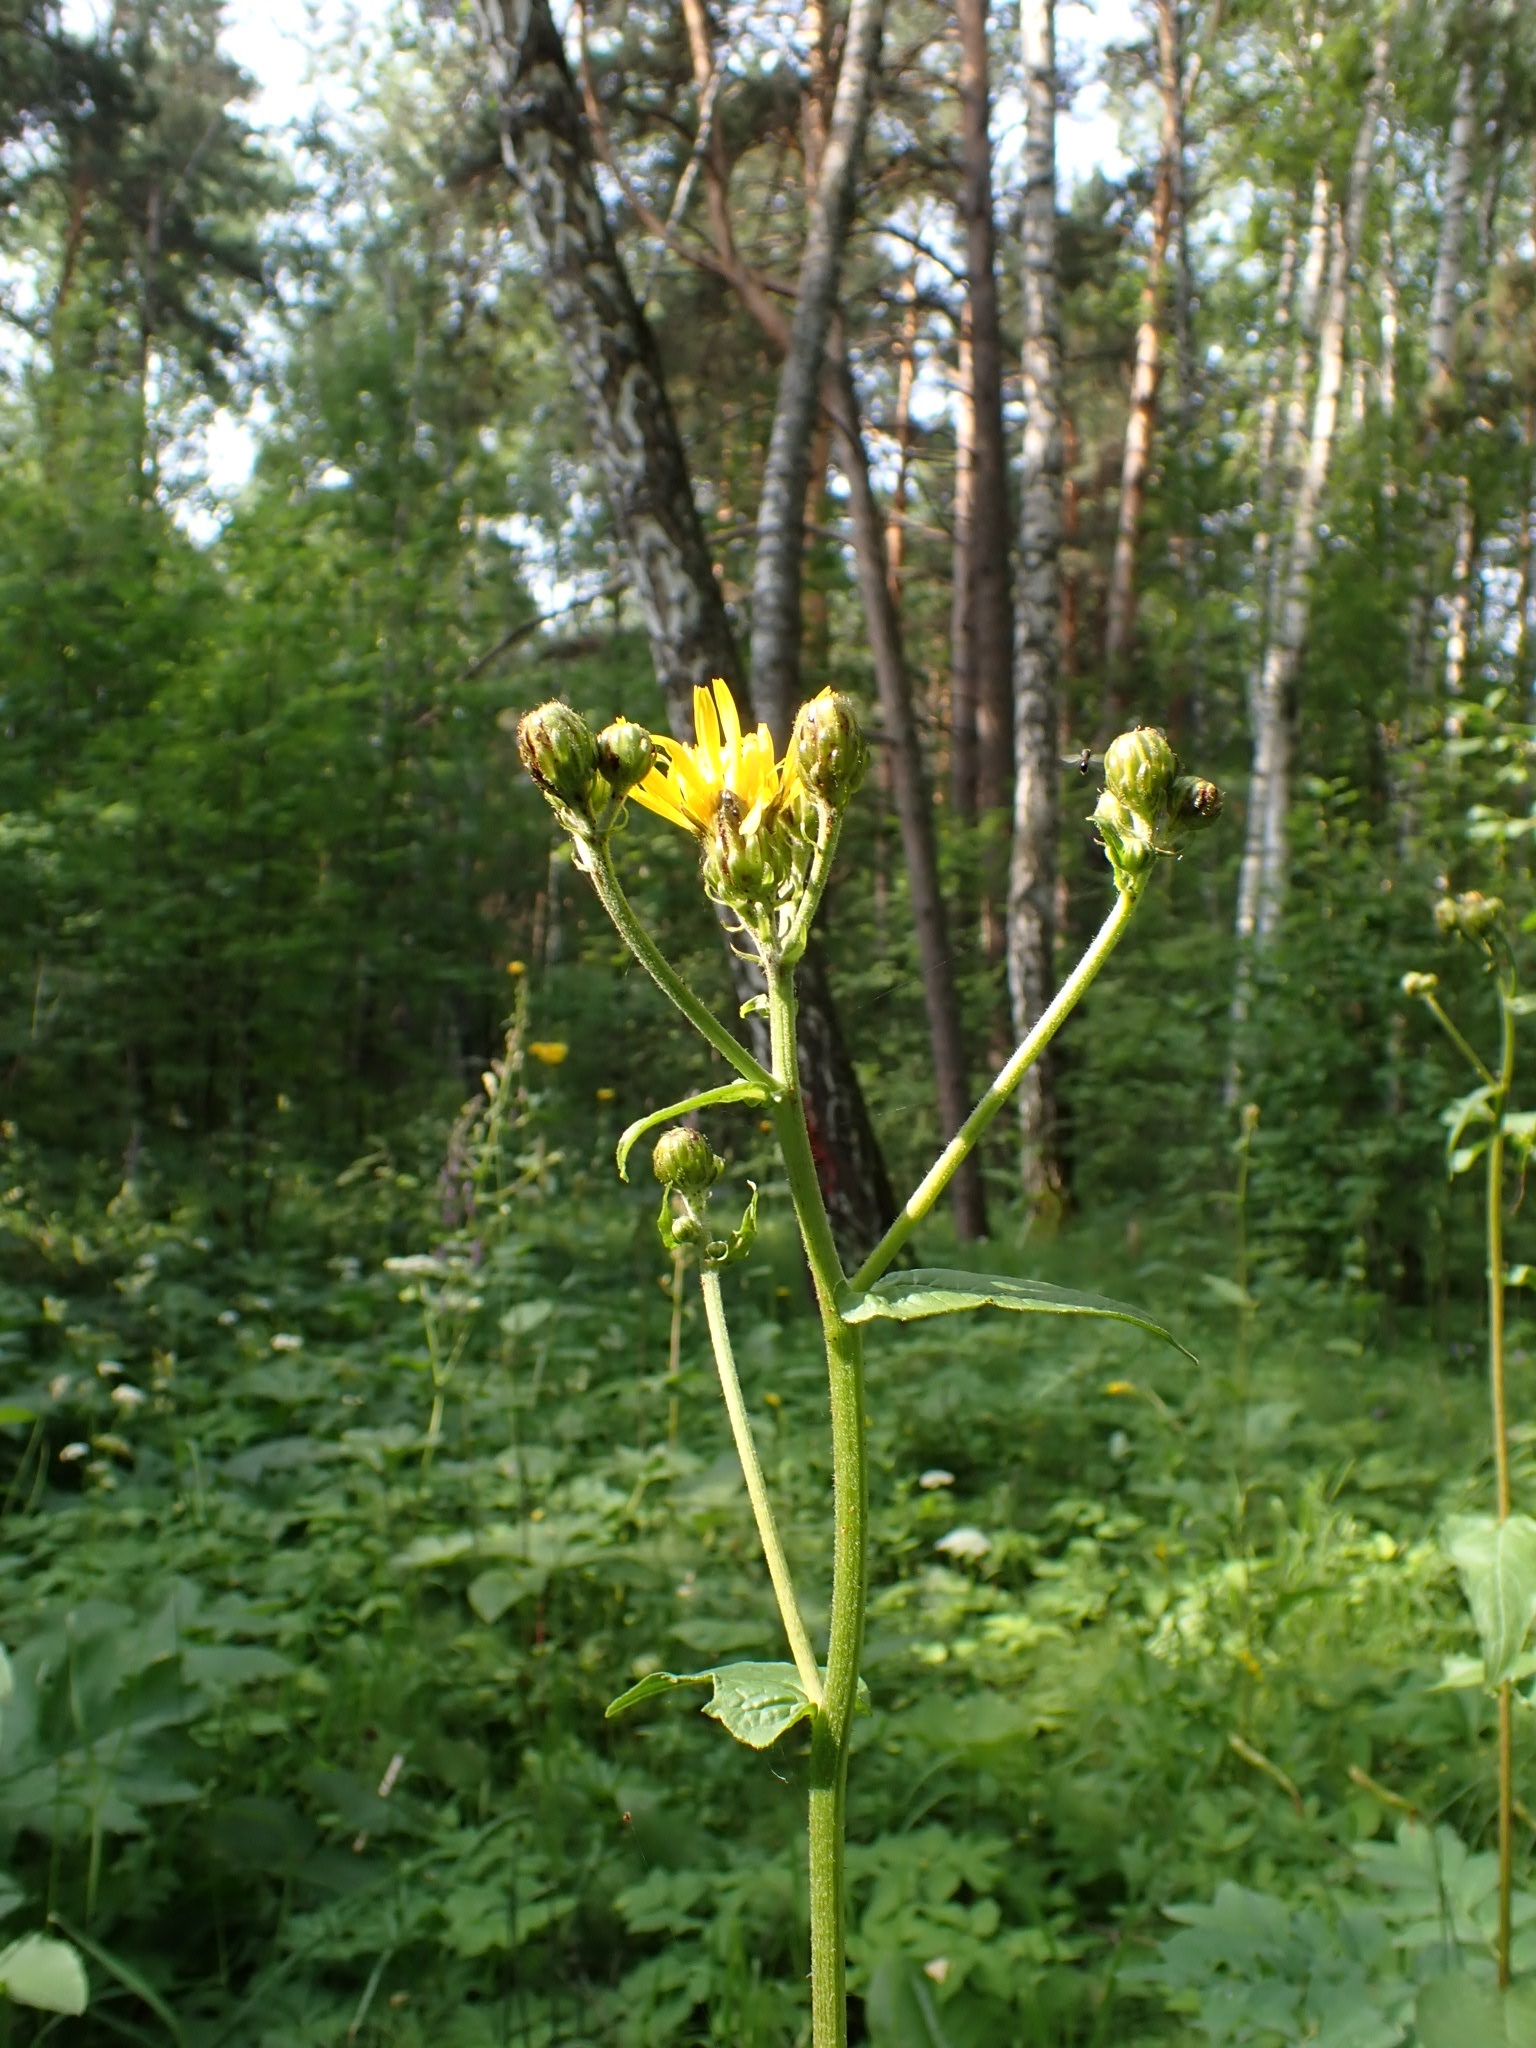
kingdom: Plantae
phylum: Tracheophyta
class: Magnoliopsida
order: Asterales
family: Asteraceae
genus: Crepis
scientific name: Crepis sibirica
